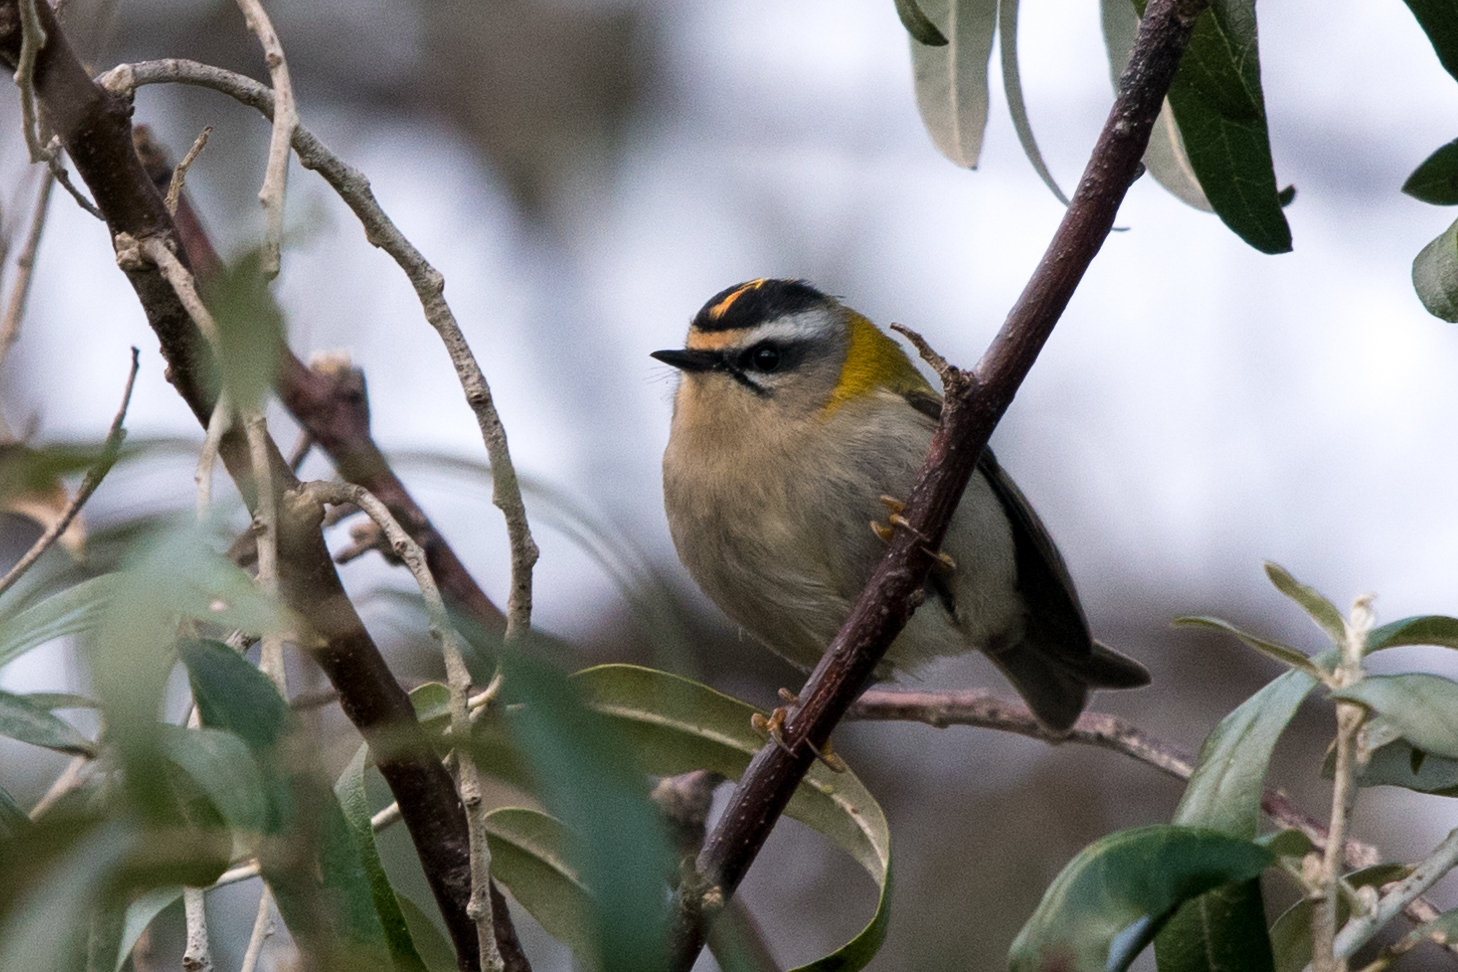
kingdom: Animalia
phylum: Chordata
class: Aves
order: Passeriformes
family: Regulidae
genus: Regulus
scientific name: Regulus ignicapilla
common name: Firecrest
